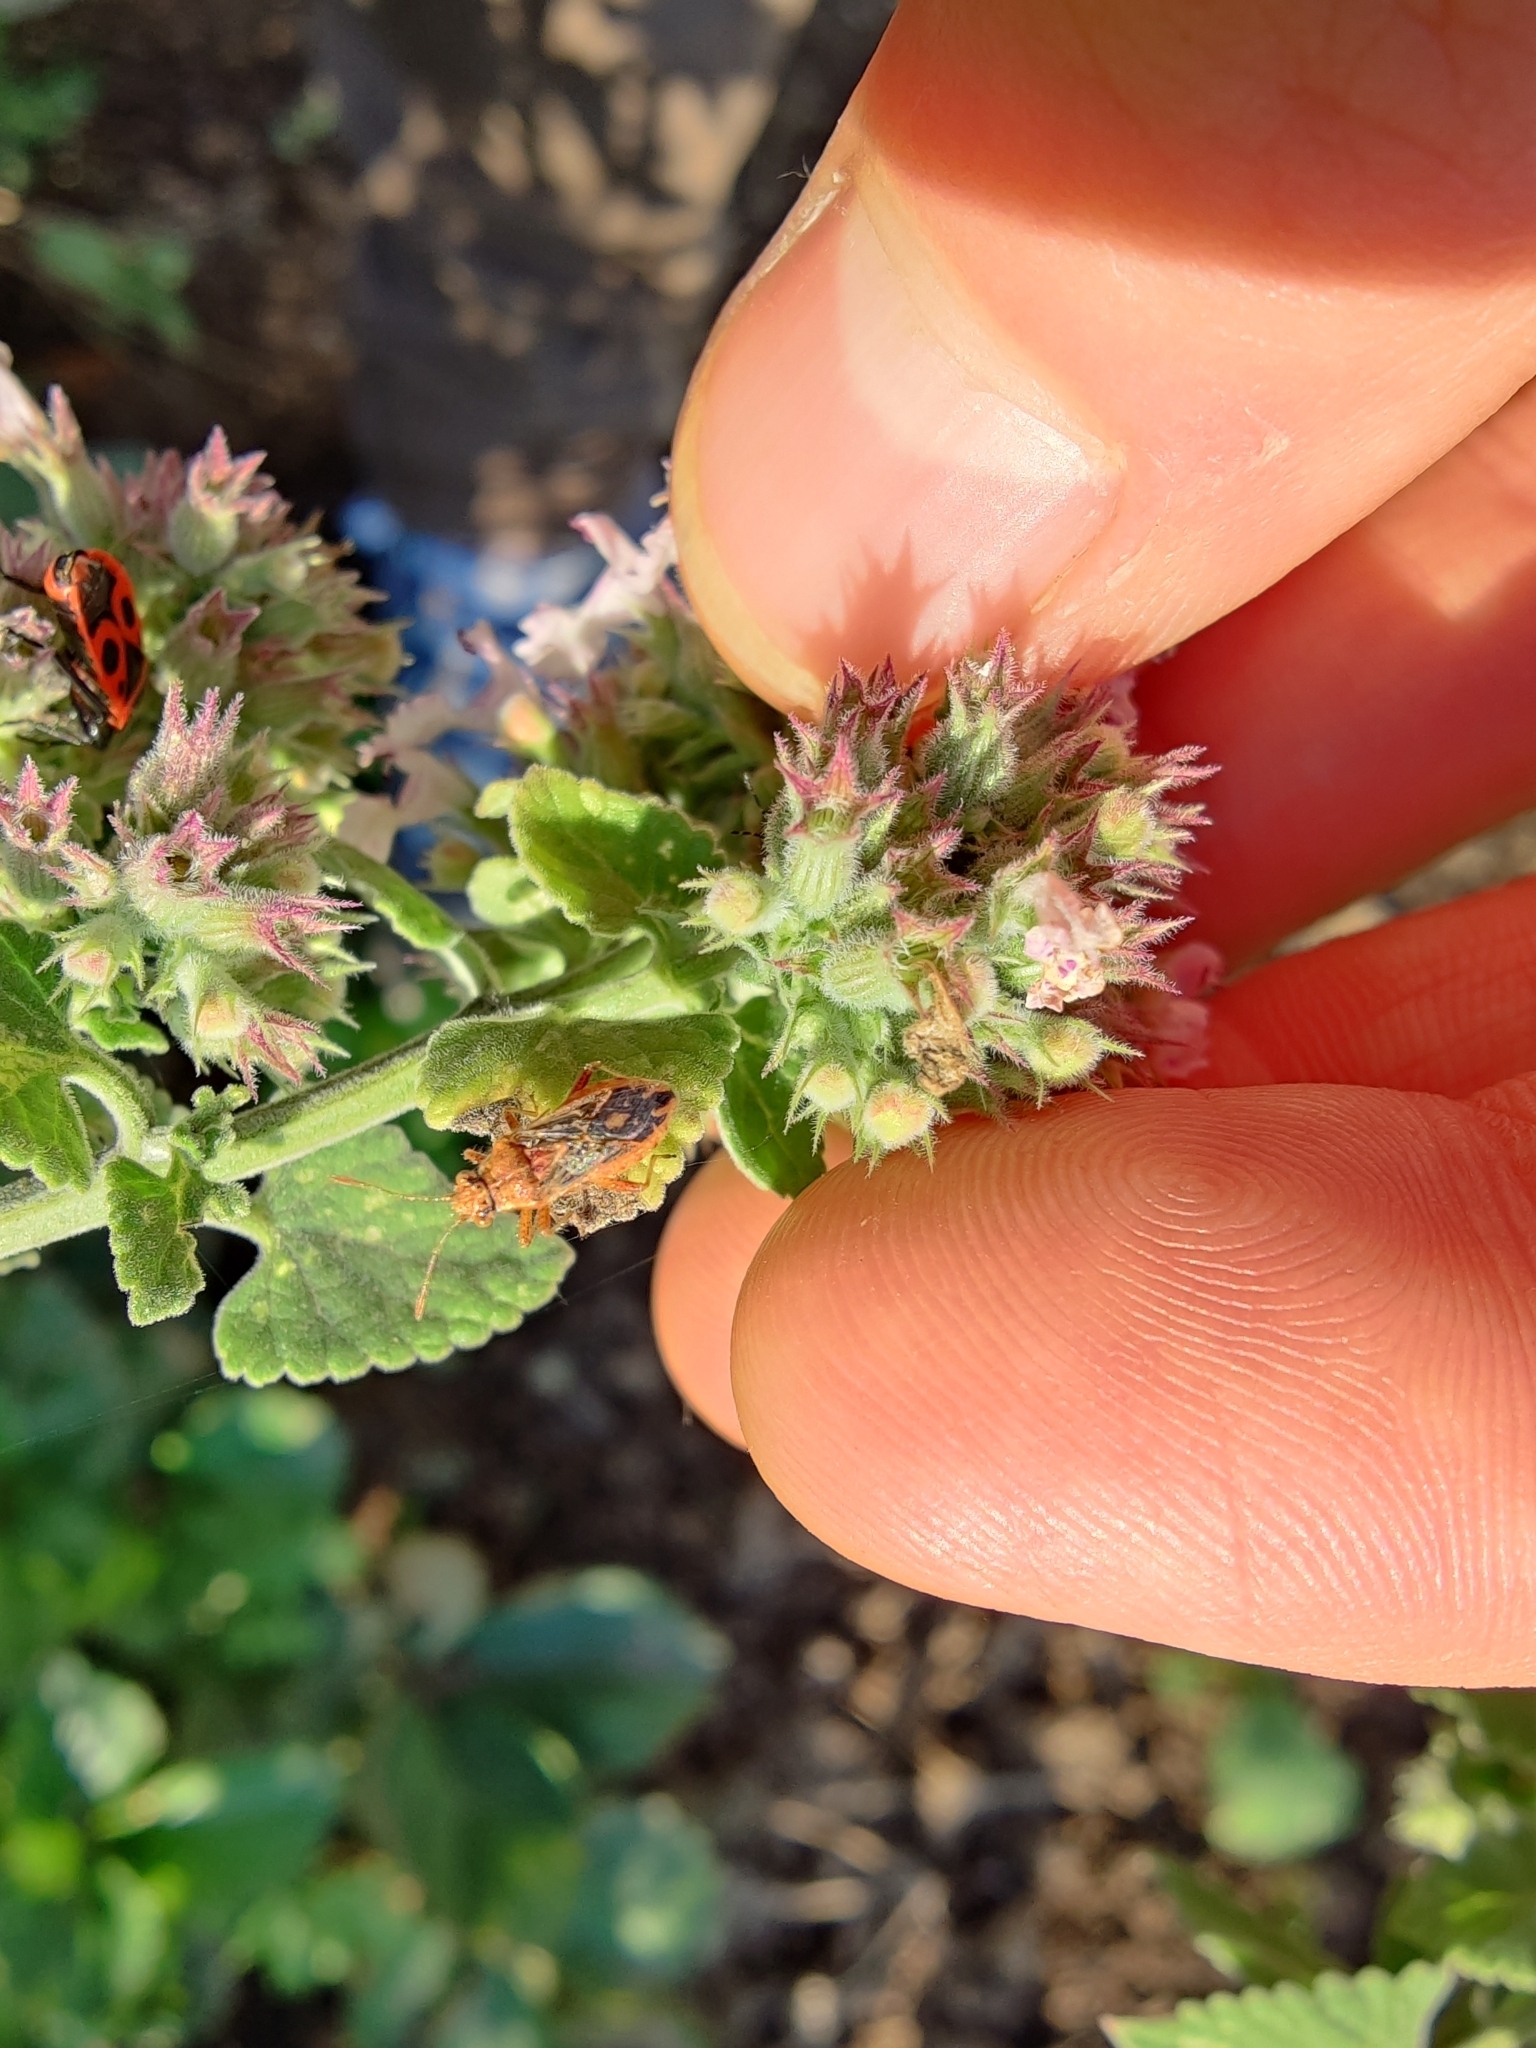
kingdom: Animalia
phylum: Arthropoda
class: Insecta
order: Hemiptera
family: Rhopalidae
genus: Rhopalus
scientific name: Rhopalus parumpunctatus
